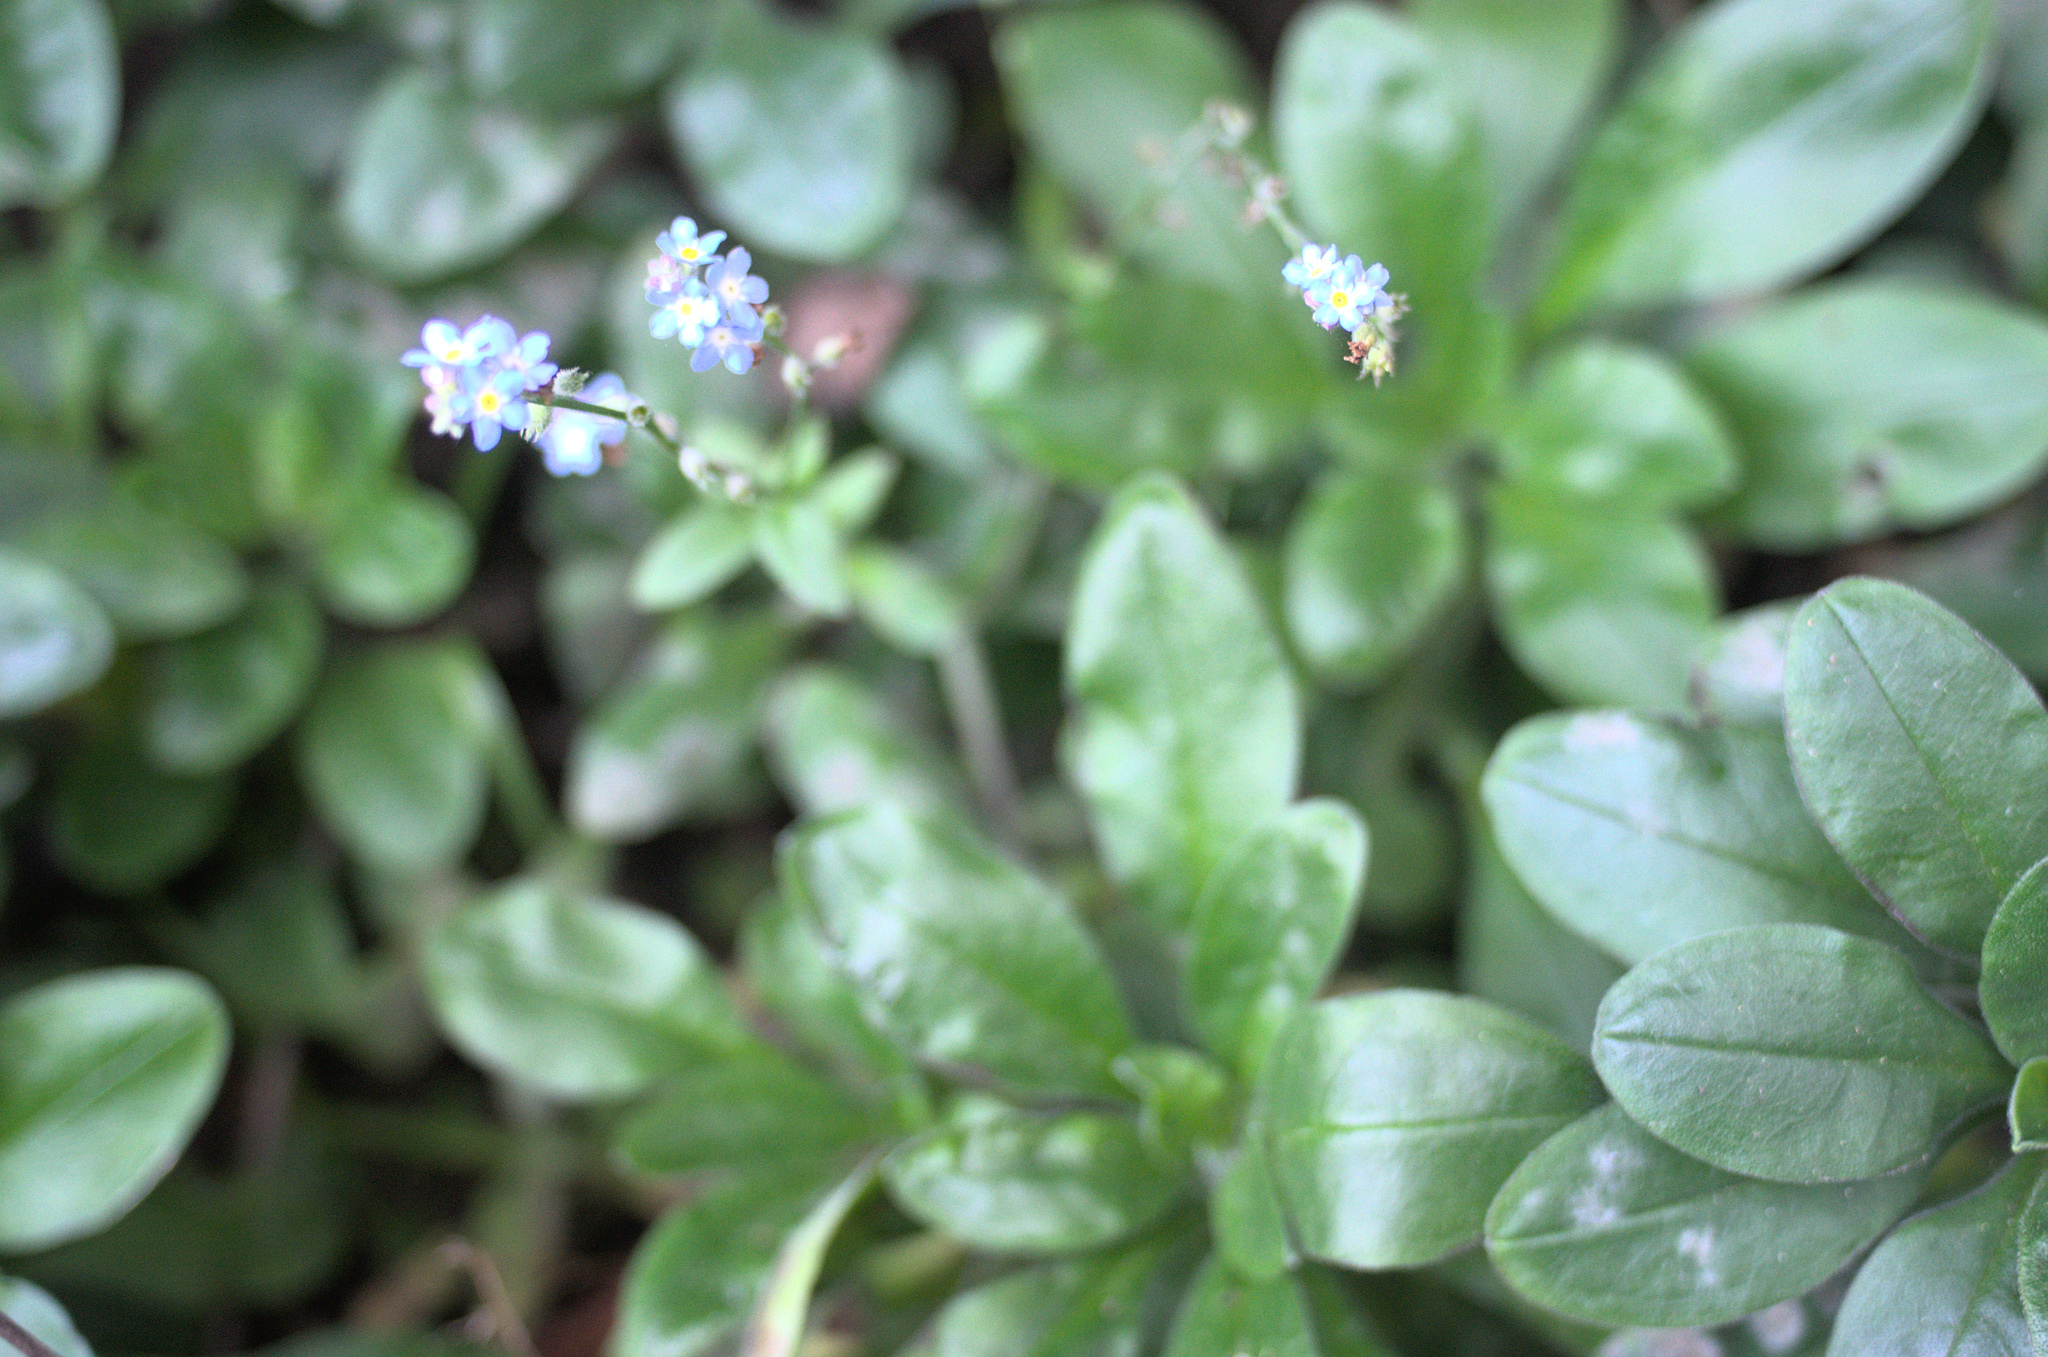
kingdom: Plantae
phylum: Tracheophyta
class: Magnoliopsida
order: Boraginales
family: Boraginaceae
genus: Myosotis
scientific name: Myosotis sylvatica
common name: Wood forget-me-not
